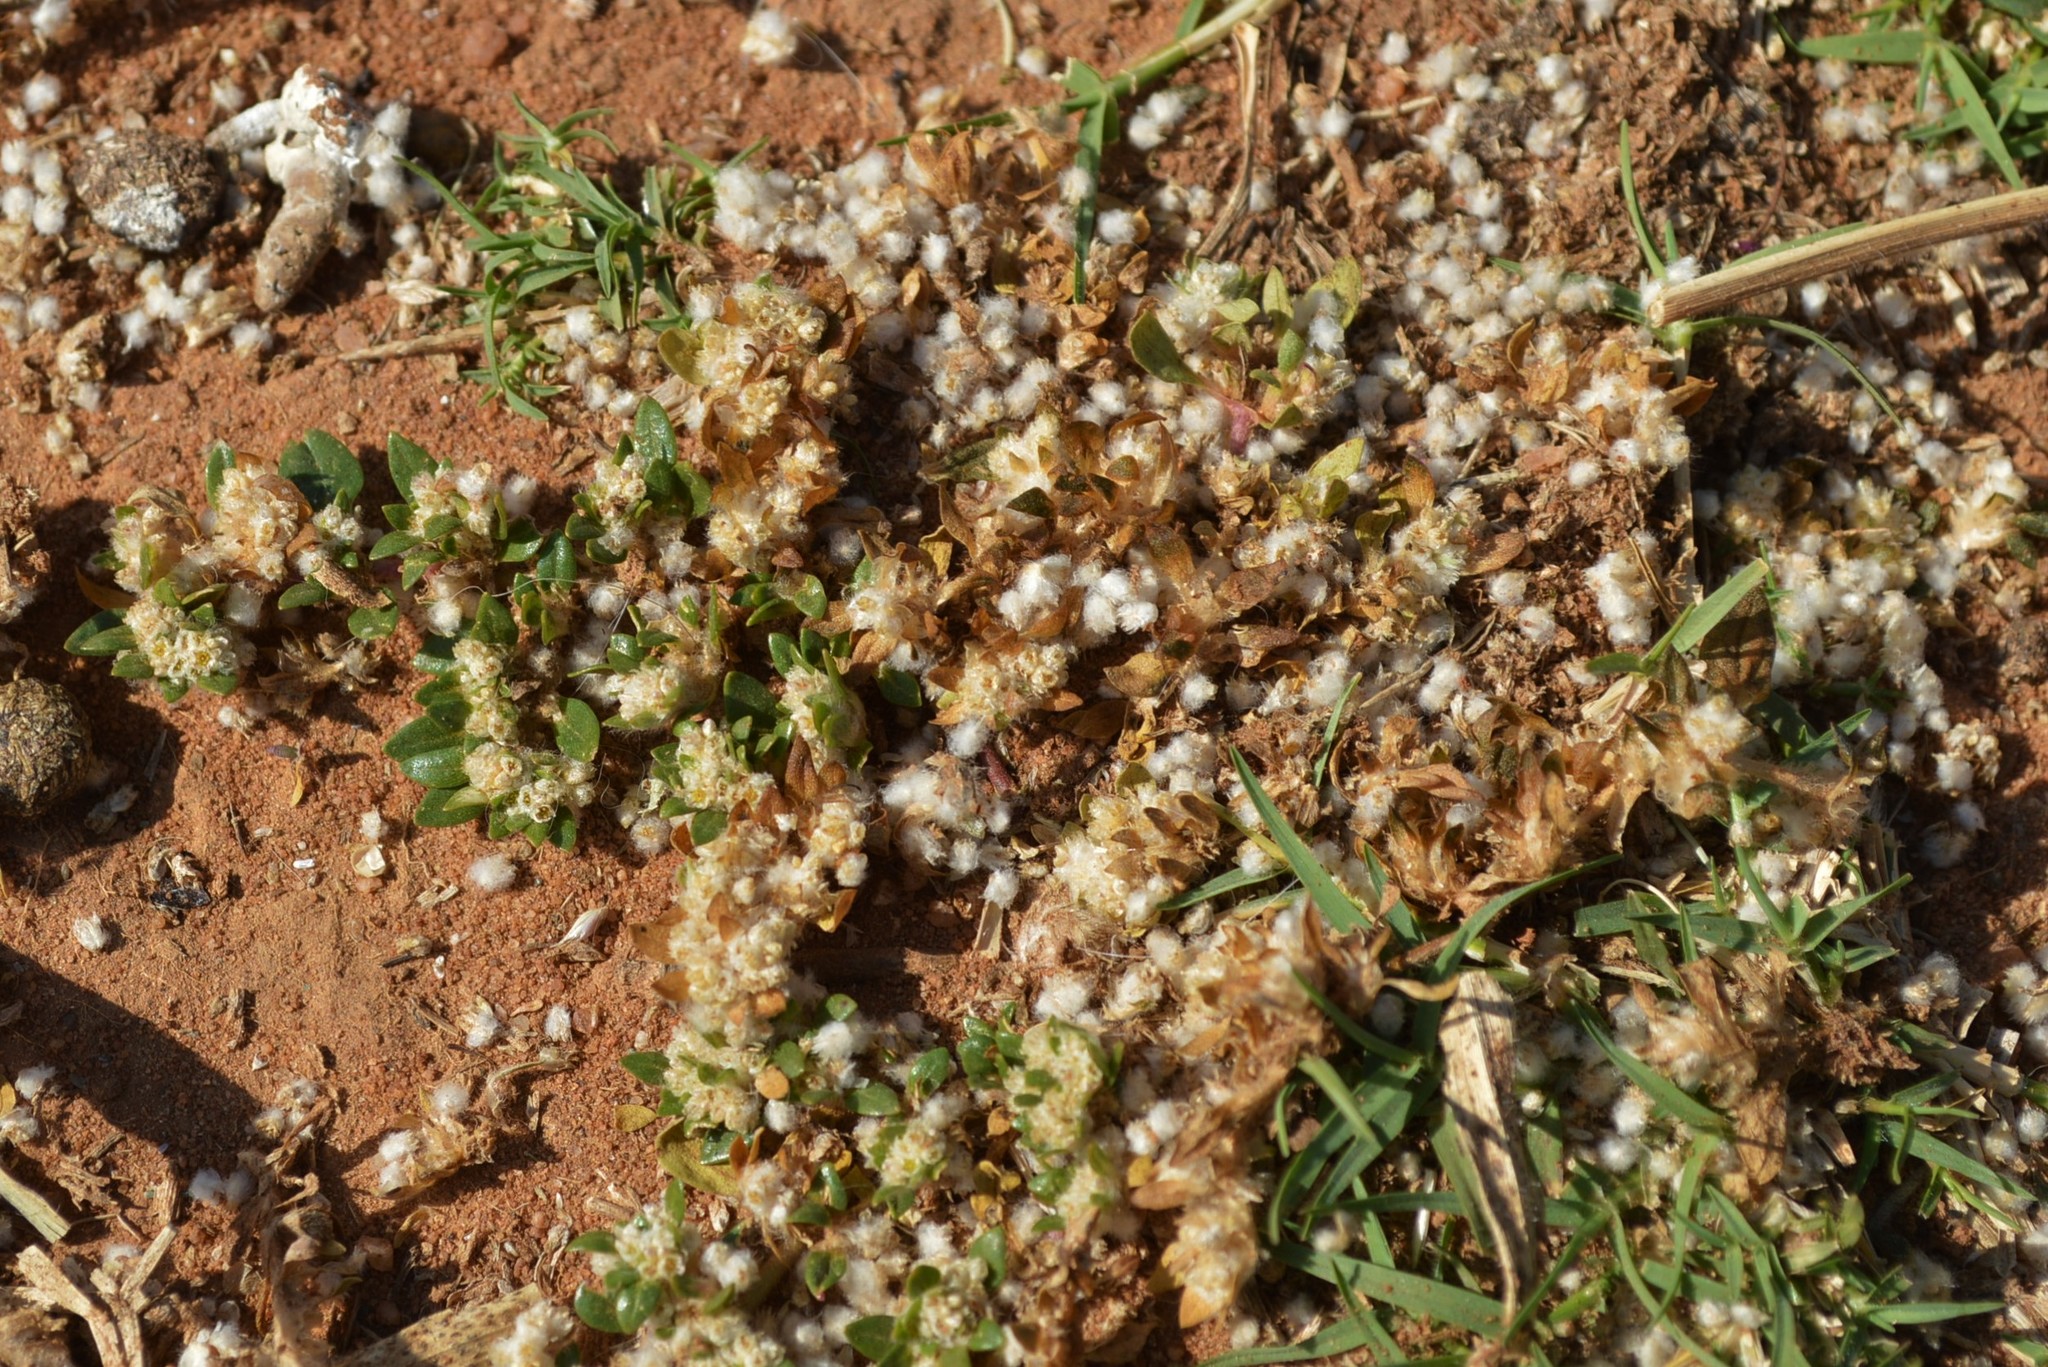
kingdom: Plantae
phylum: Tracheophyta
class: Magnoliopsida
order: Caryophyllales
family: Amaranthaceae
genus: Guilleminea
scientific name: Guilleminea densa
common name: Small matweed
